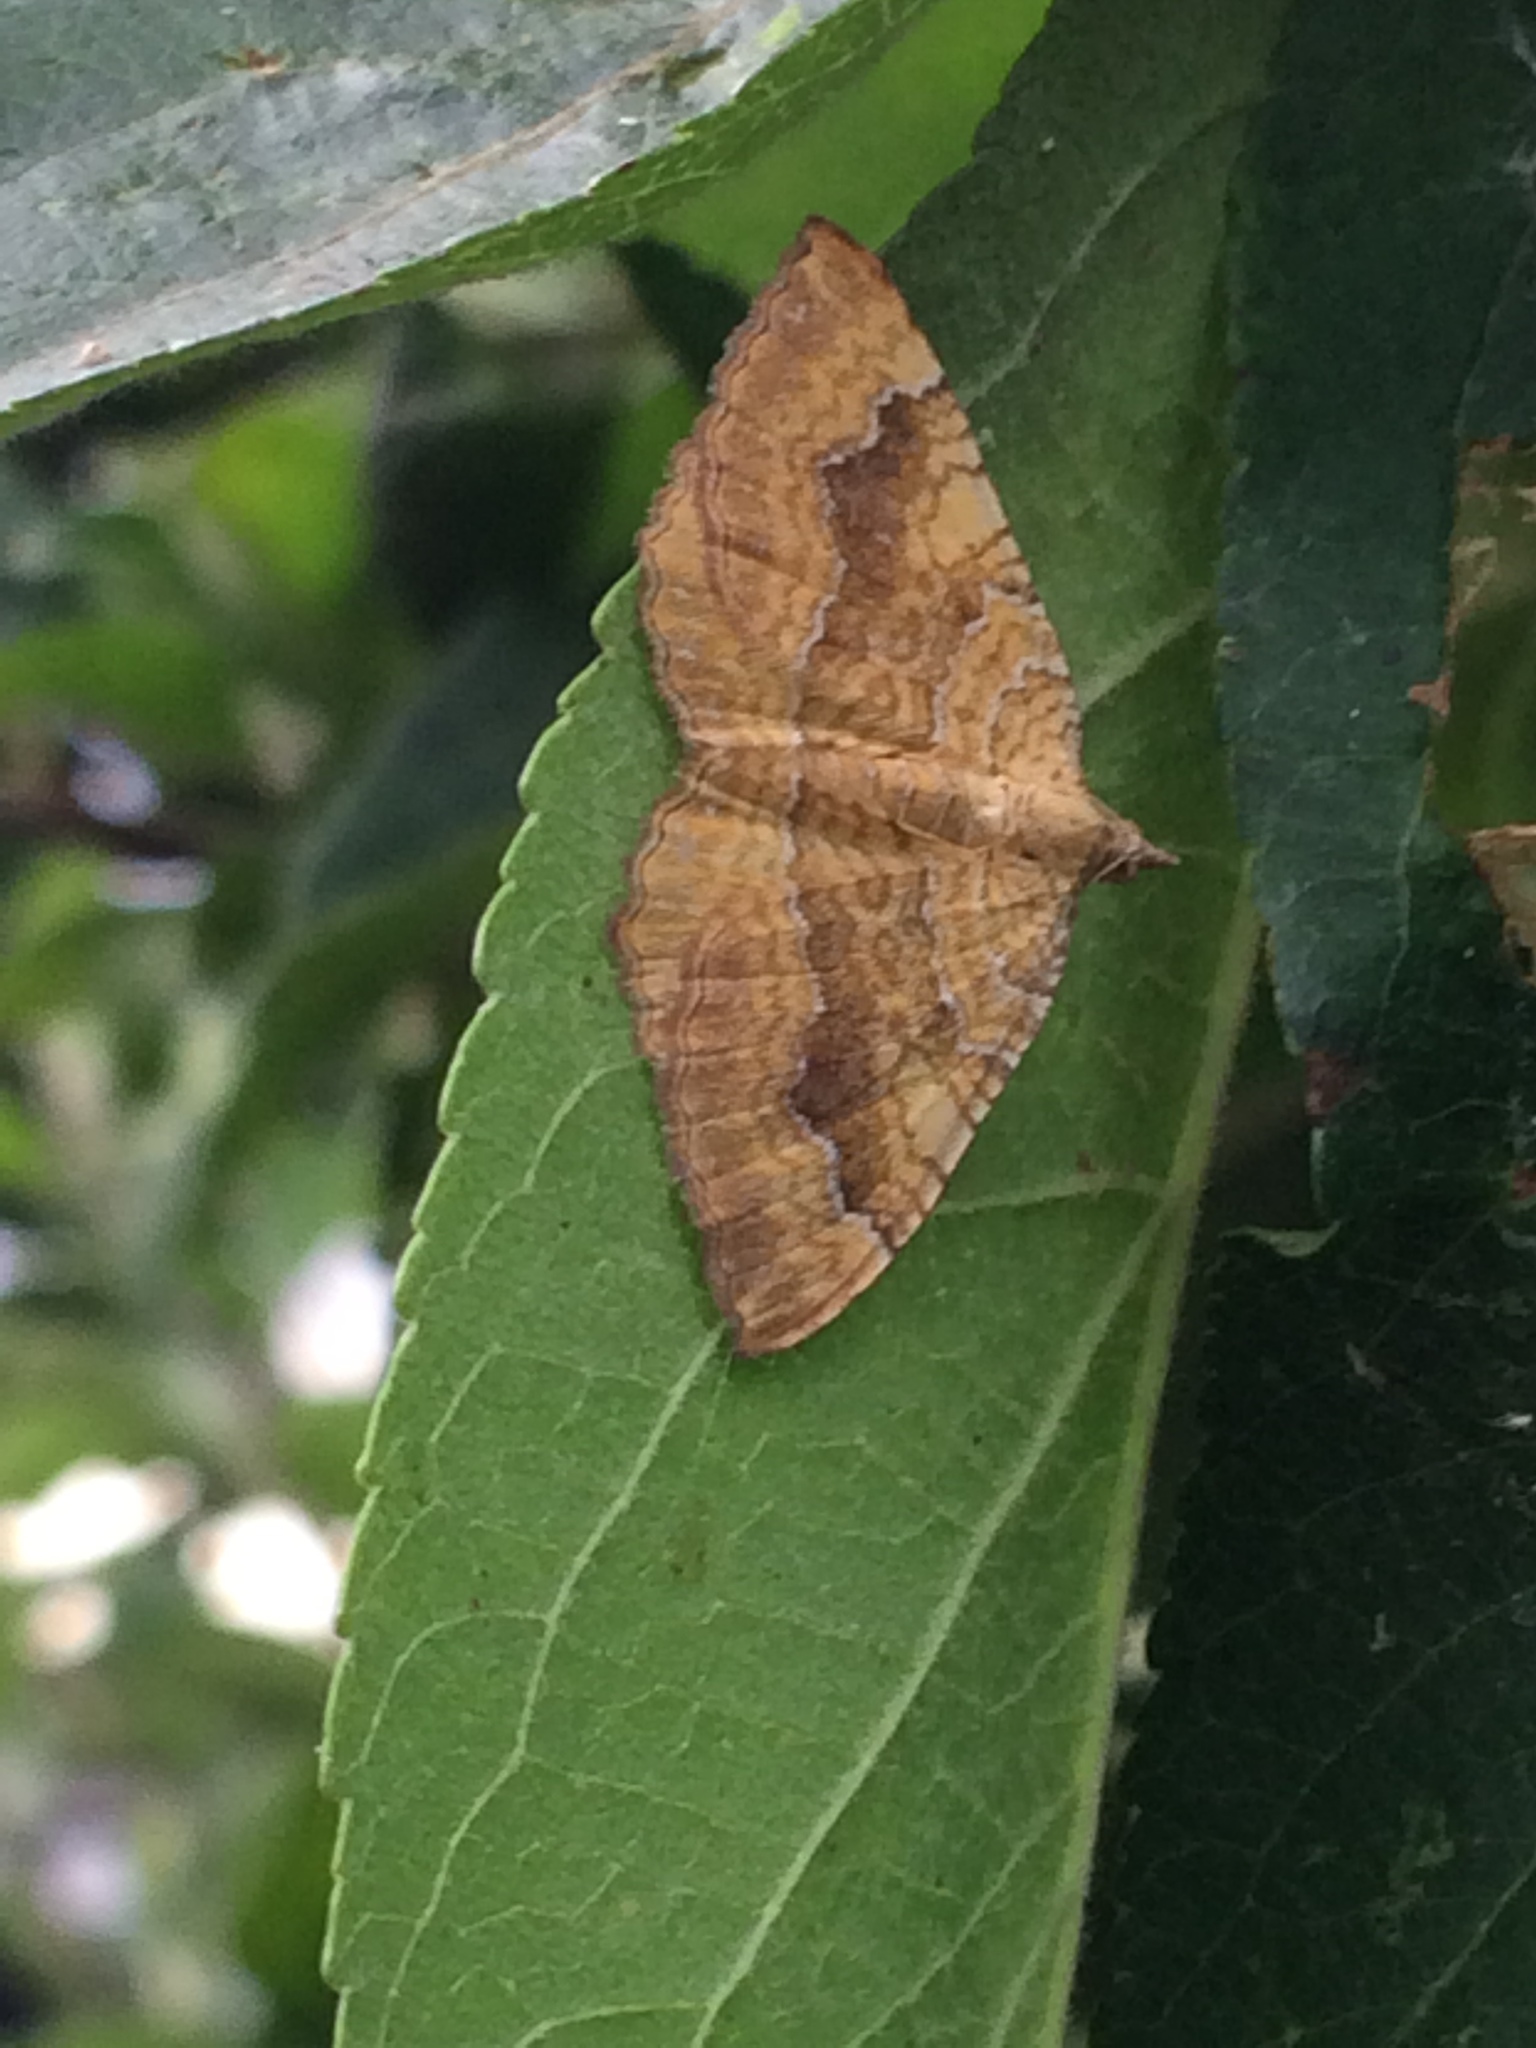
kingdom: Animalia
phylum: Arthropoda
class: Insecta
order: Lepidoptera
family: Geometridae
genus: Camptogramma
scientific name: Camptogramma bilineata
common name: Yellow shell
